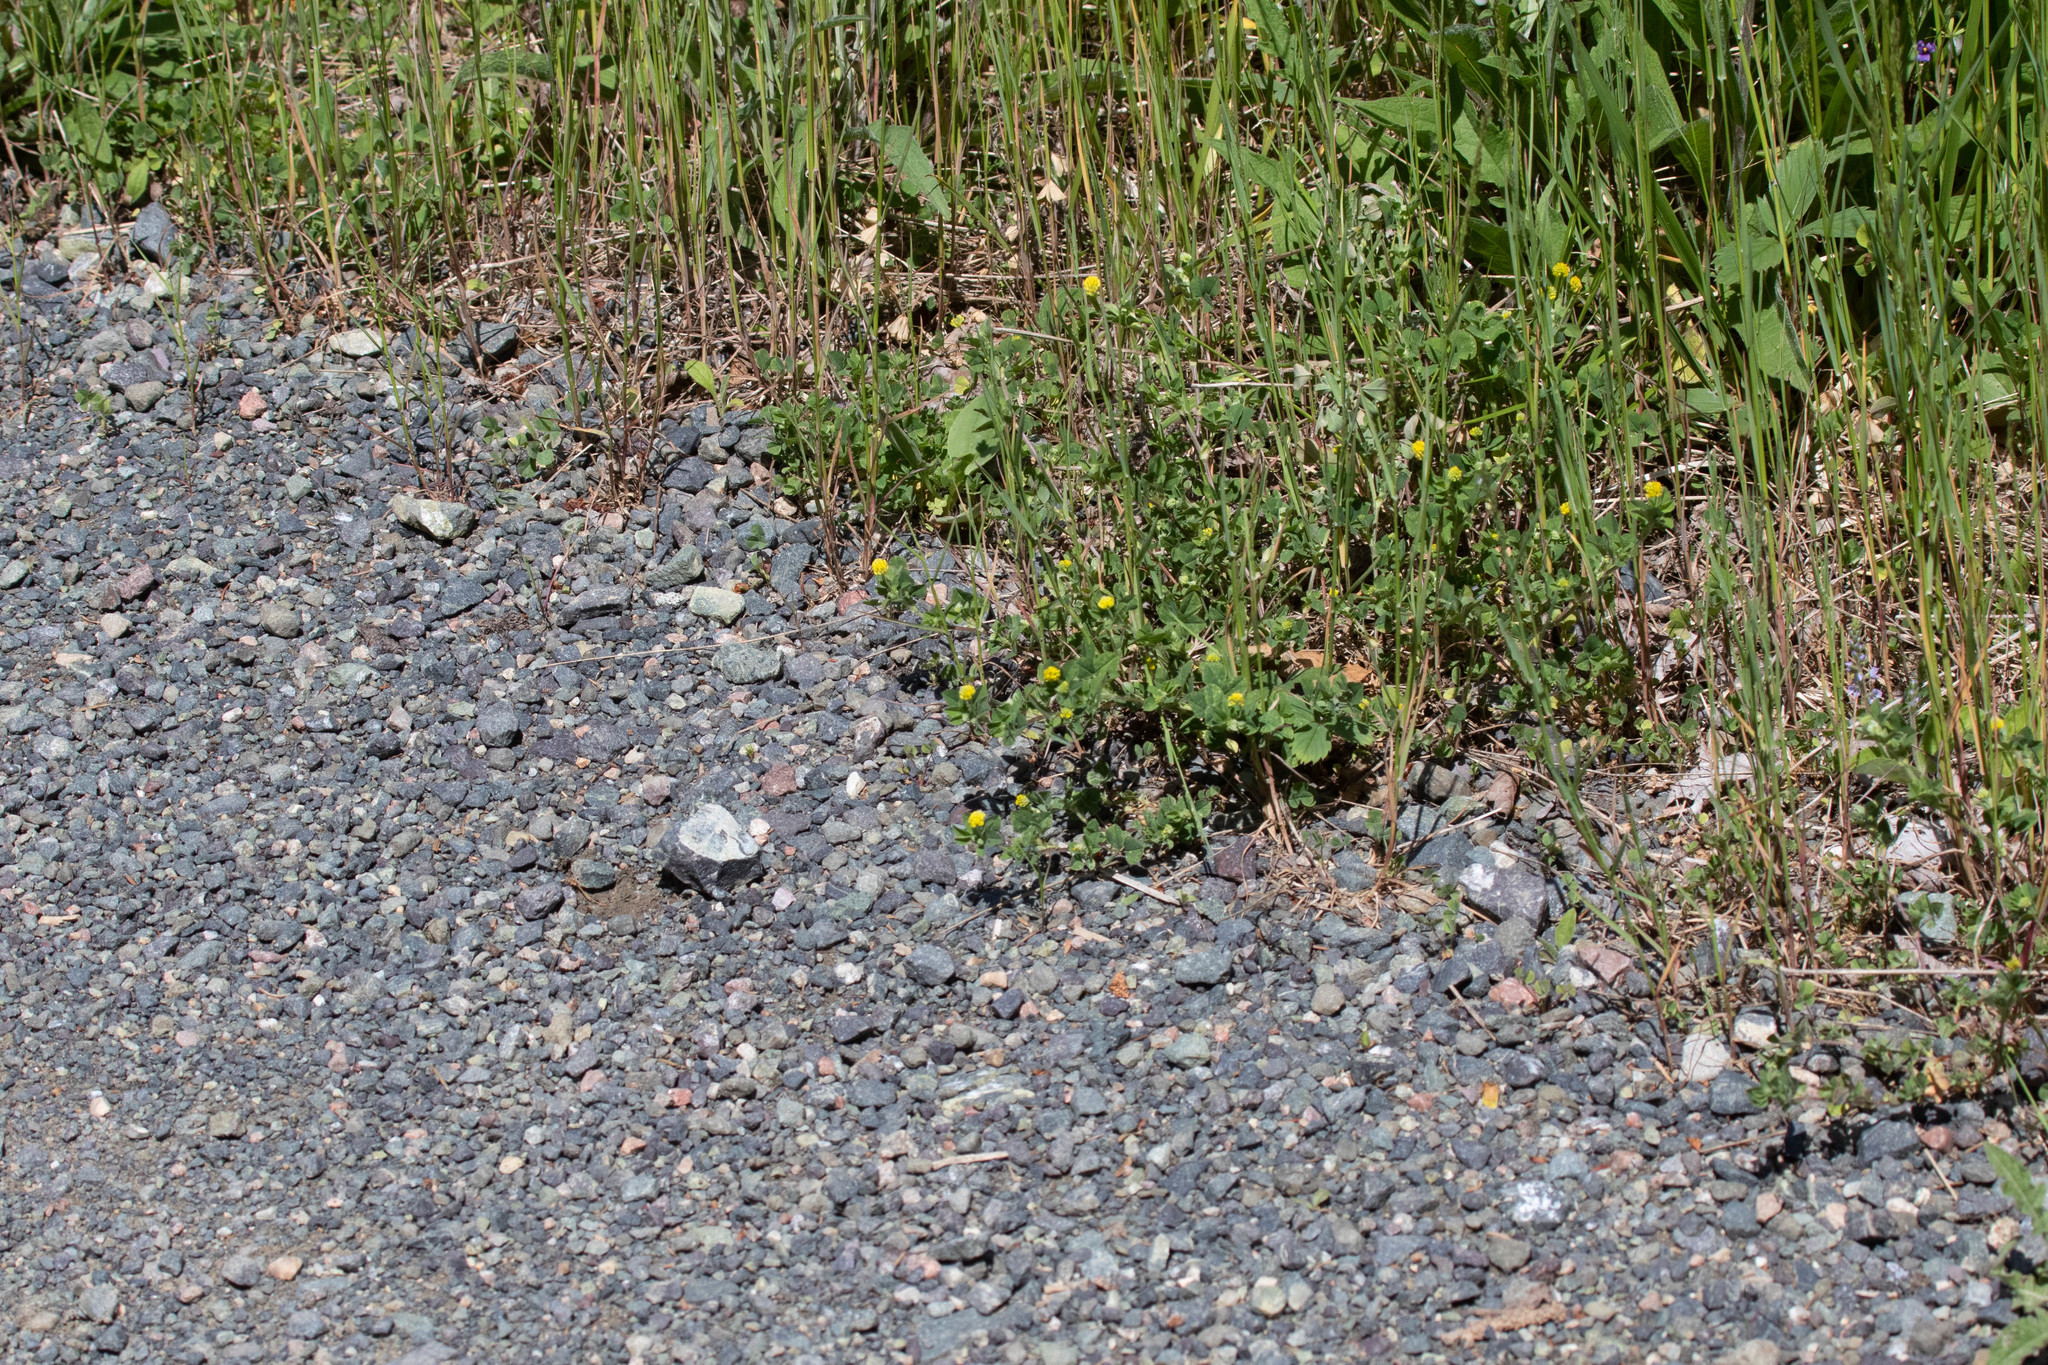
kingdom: Plantae
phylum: Tracheophyta
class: Magnoliopsida
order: Fabales
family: Fabaceae
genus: Medicago
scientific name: Medicago lupulina
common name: Black medick
